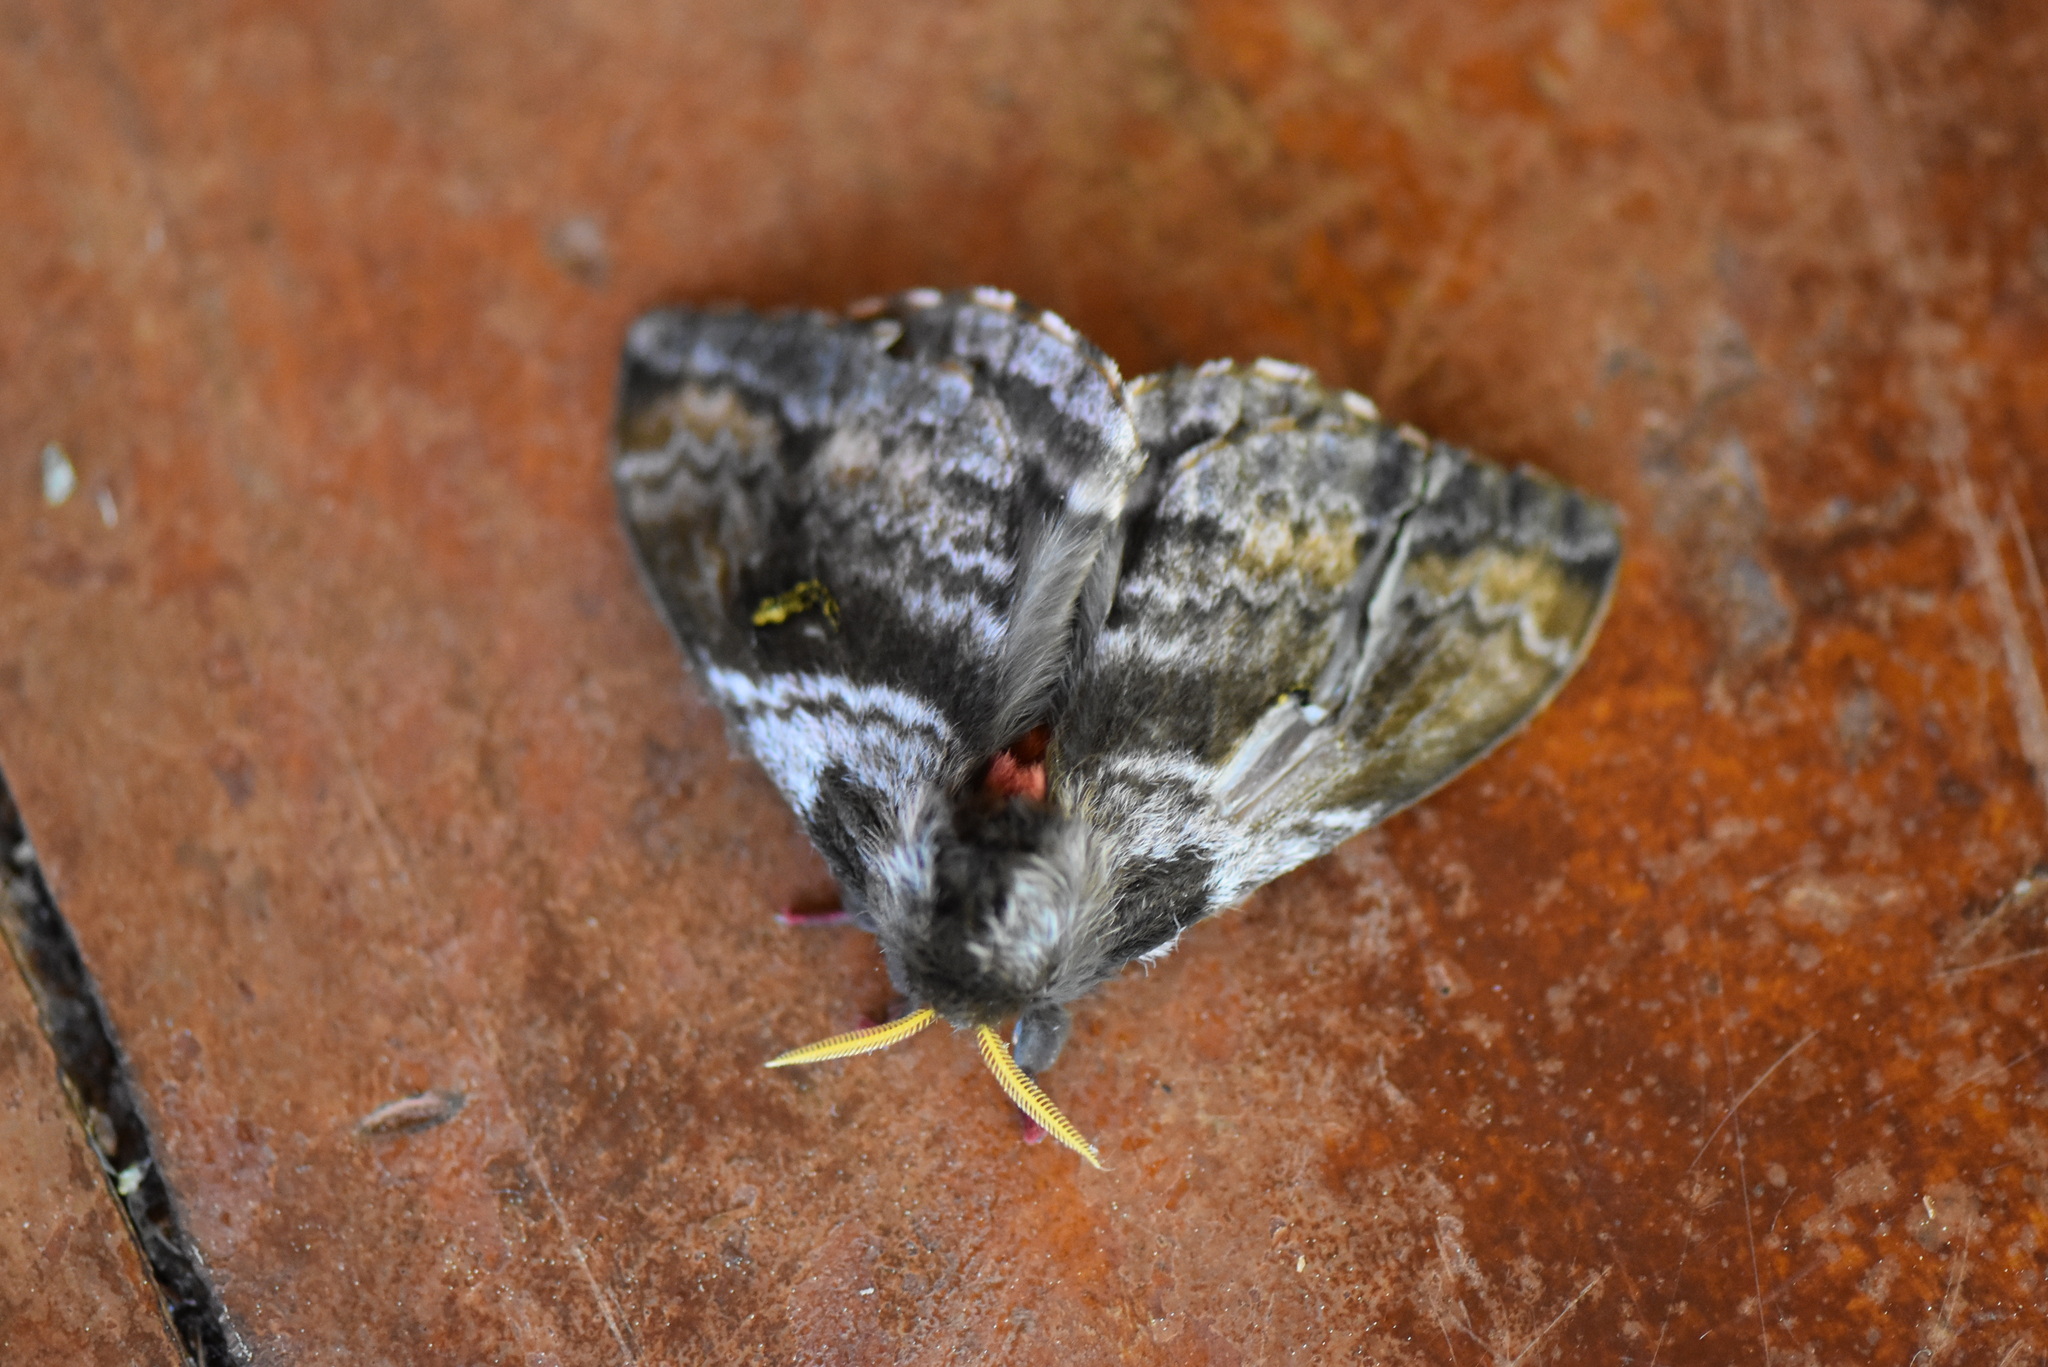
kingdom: Animalia
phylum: Arthropoda
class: Insecta
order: Lepidoptera
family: Saturniidae
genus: Hidripa
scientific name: Hidripa taglia
